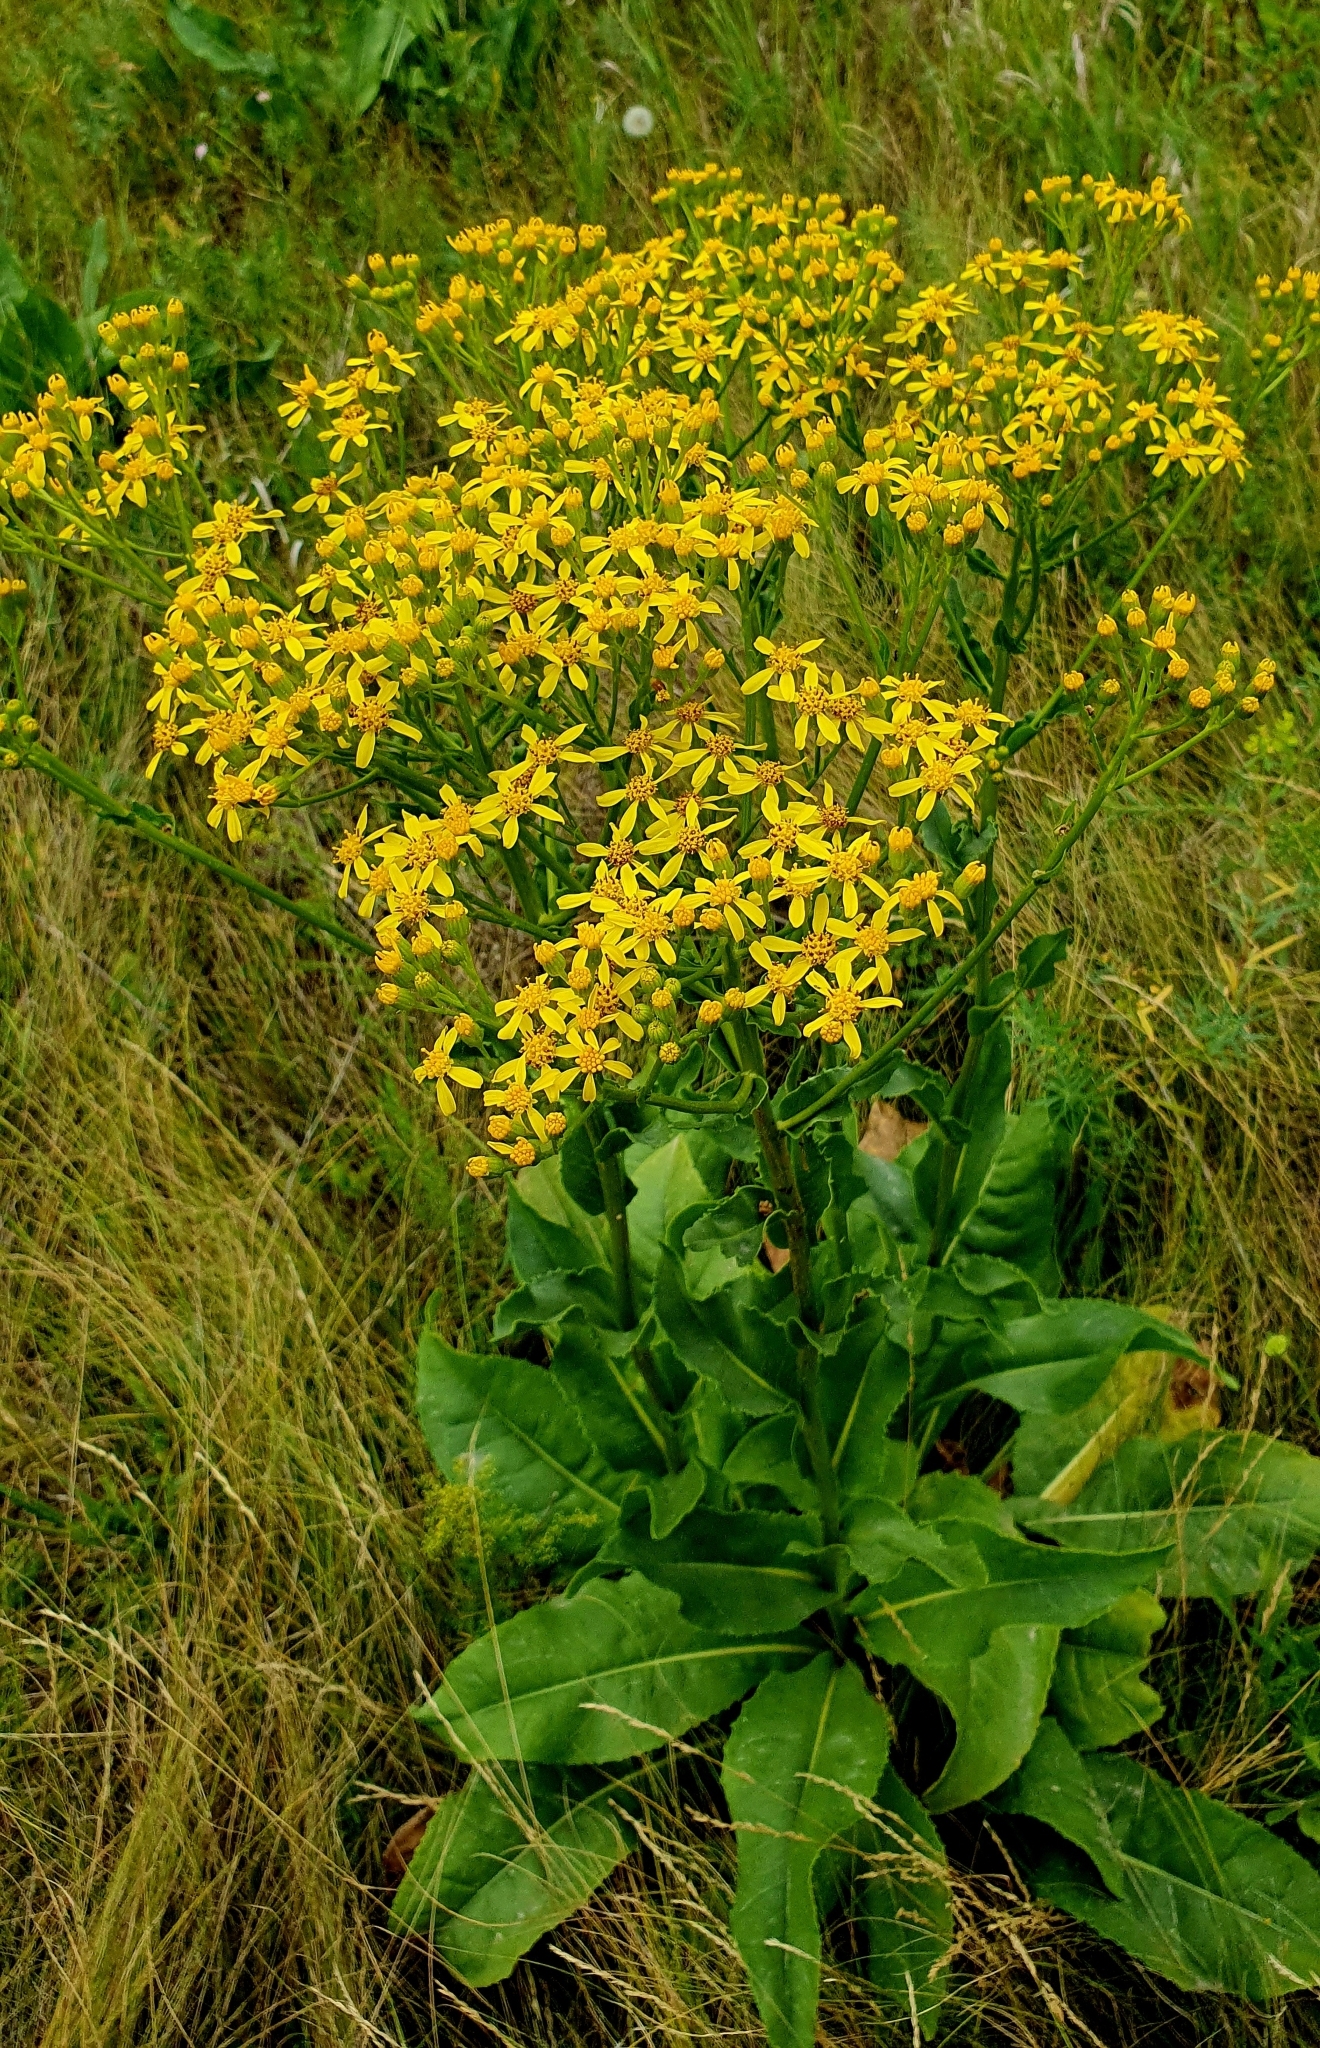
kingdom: Plantae
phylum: Tracheophyta
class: Magnoliopsida
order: Asterales
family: Asteraceae
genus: Senecio
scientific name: Senecio doria
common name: Golden ragwort
